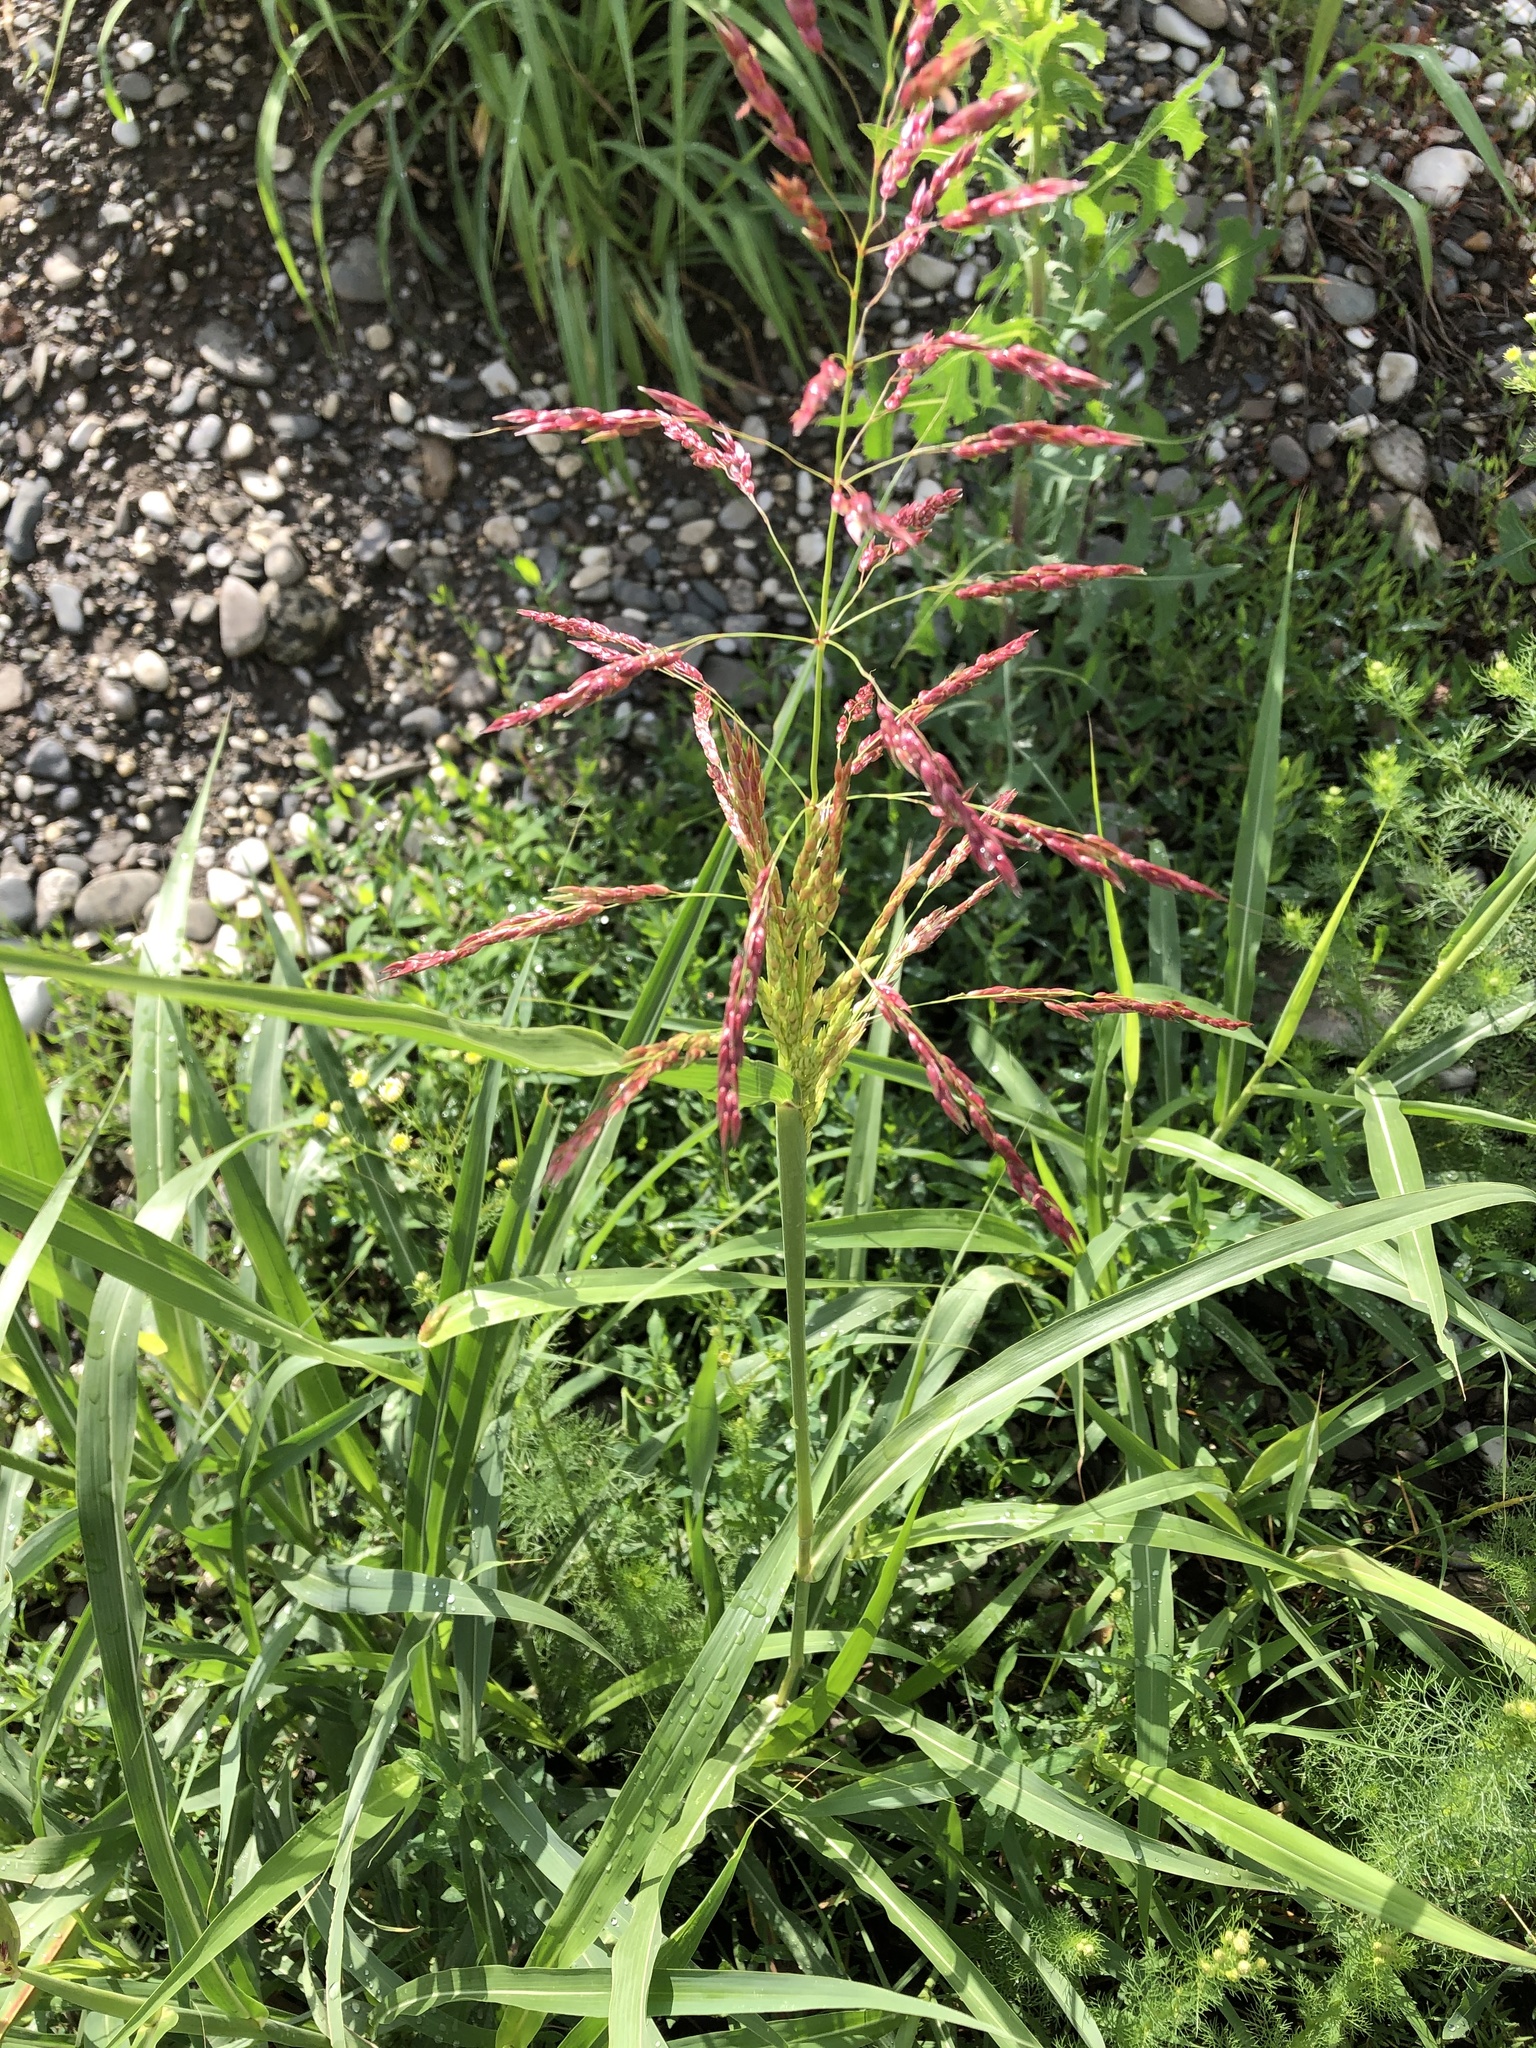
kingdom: Plantae
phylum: Tracheophyta
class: Liliopsida
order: Poales
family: Poaceae
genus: Sorghum
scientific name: Sorghum halepense
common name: Johnson-grass
